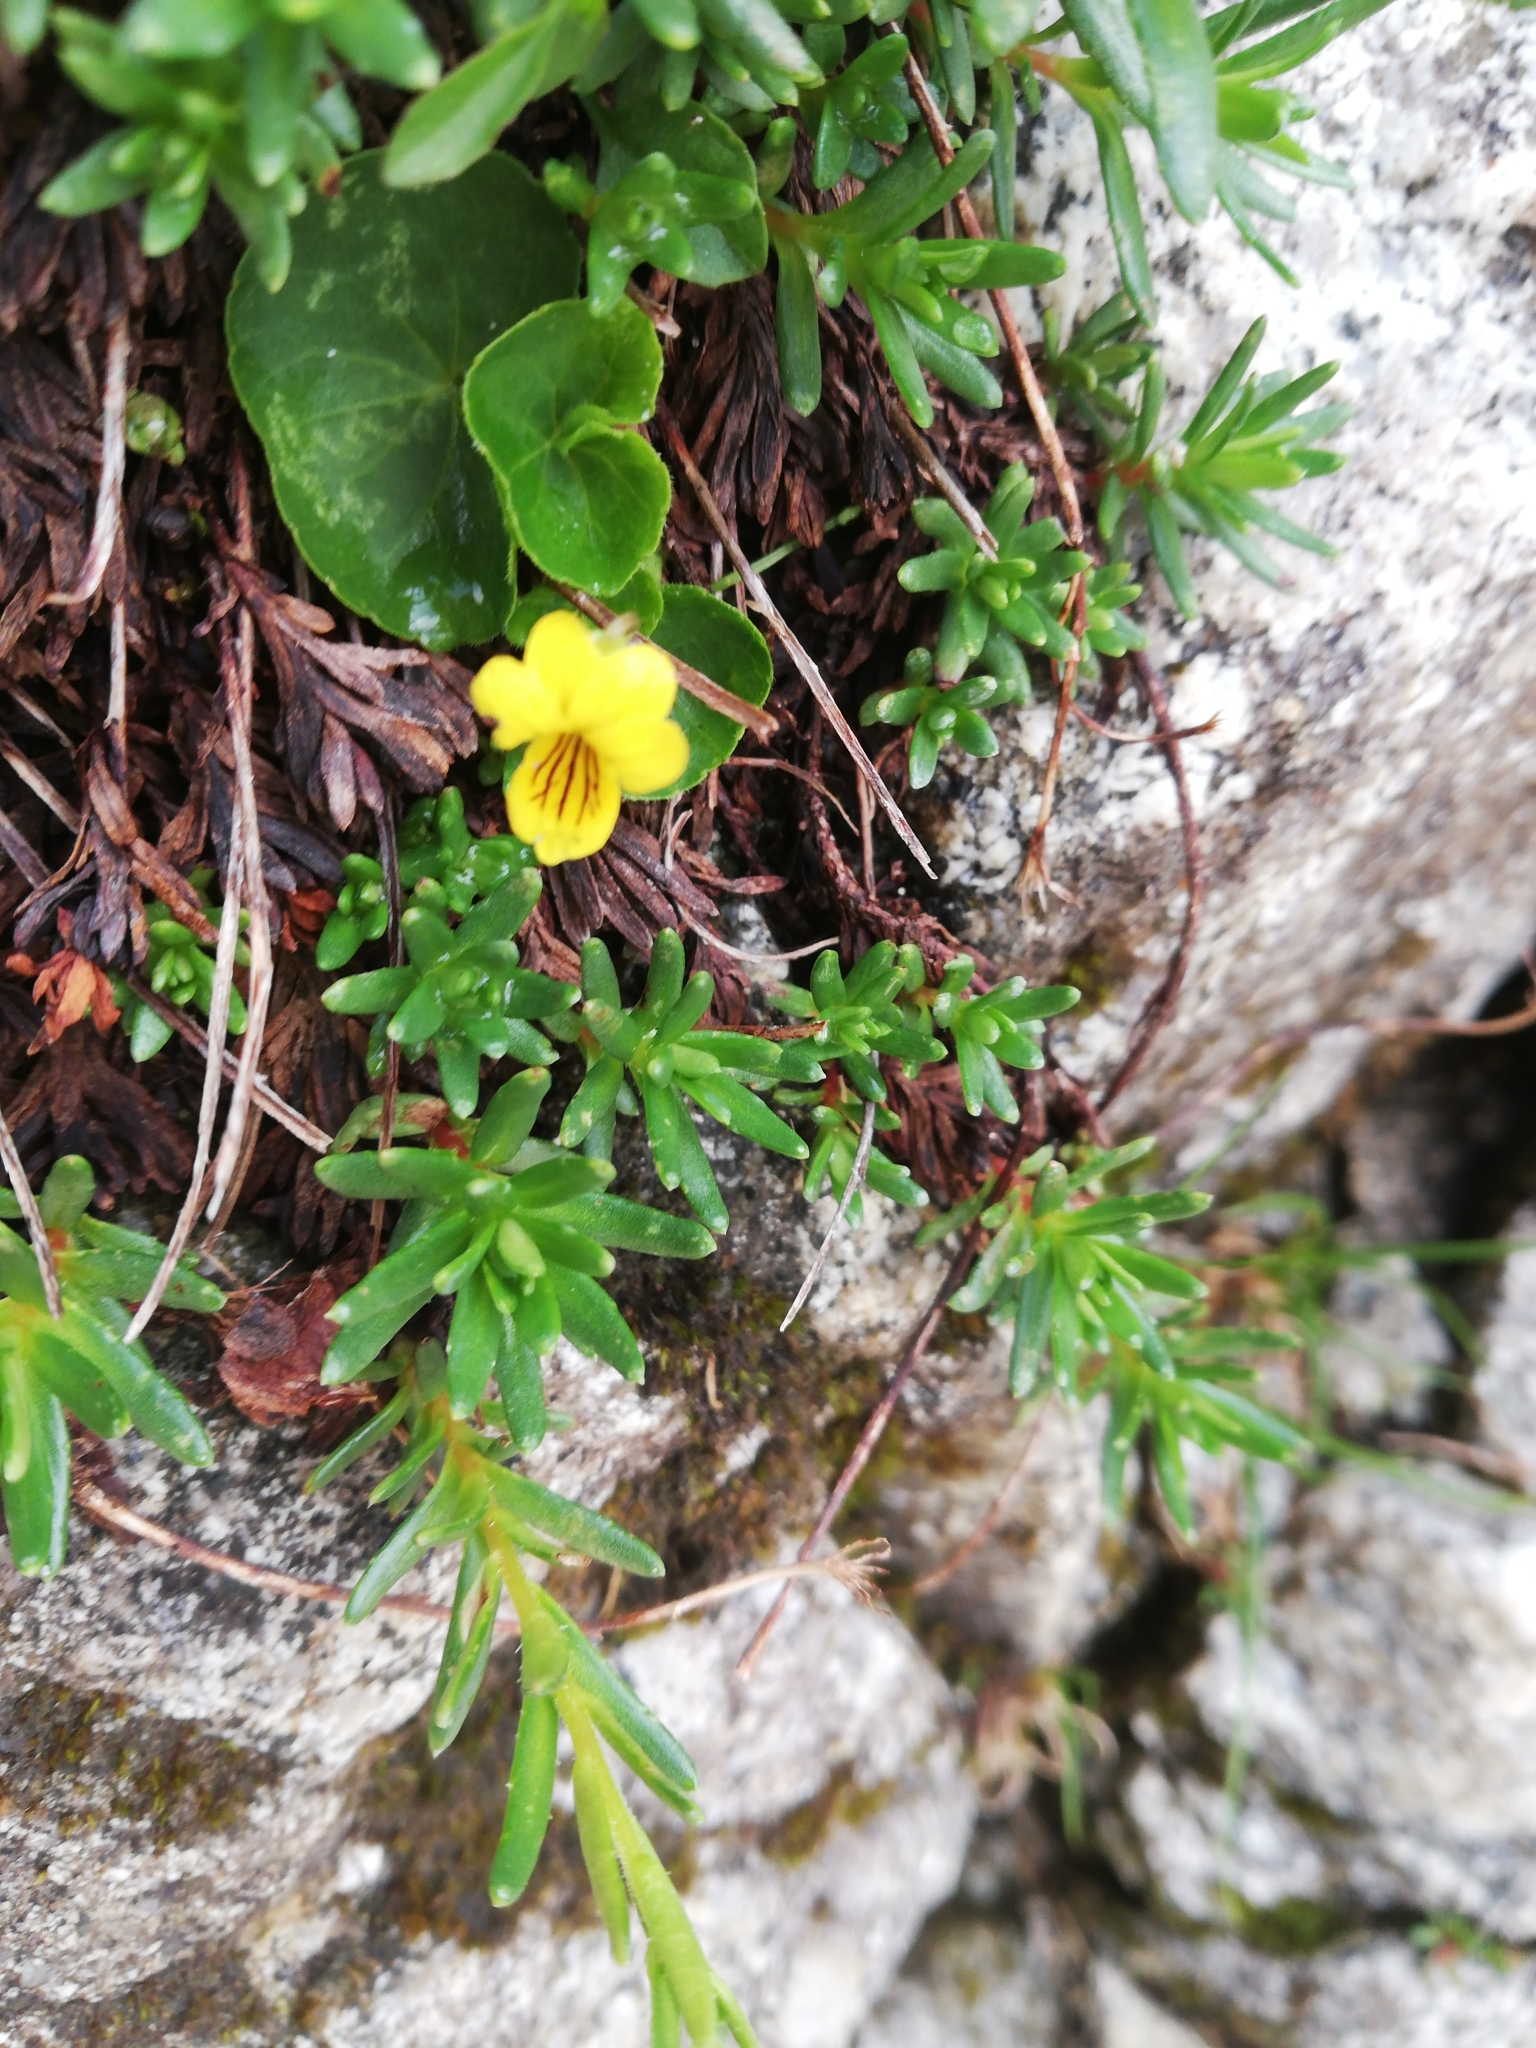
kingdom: Plantae
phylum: Tracheophyta
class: Magnoliopsida
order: Malpighiales
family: Violaceae
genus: Viola
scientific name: Viola biflora
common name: Alpine yellow violet
